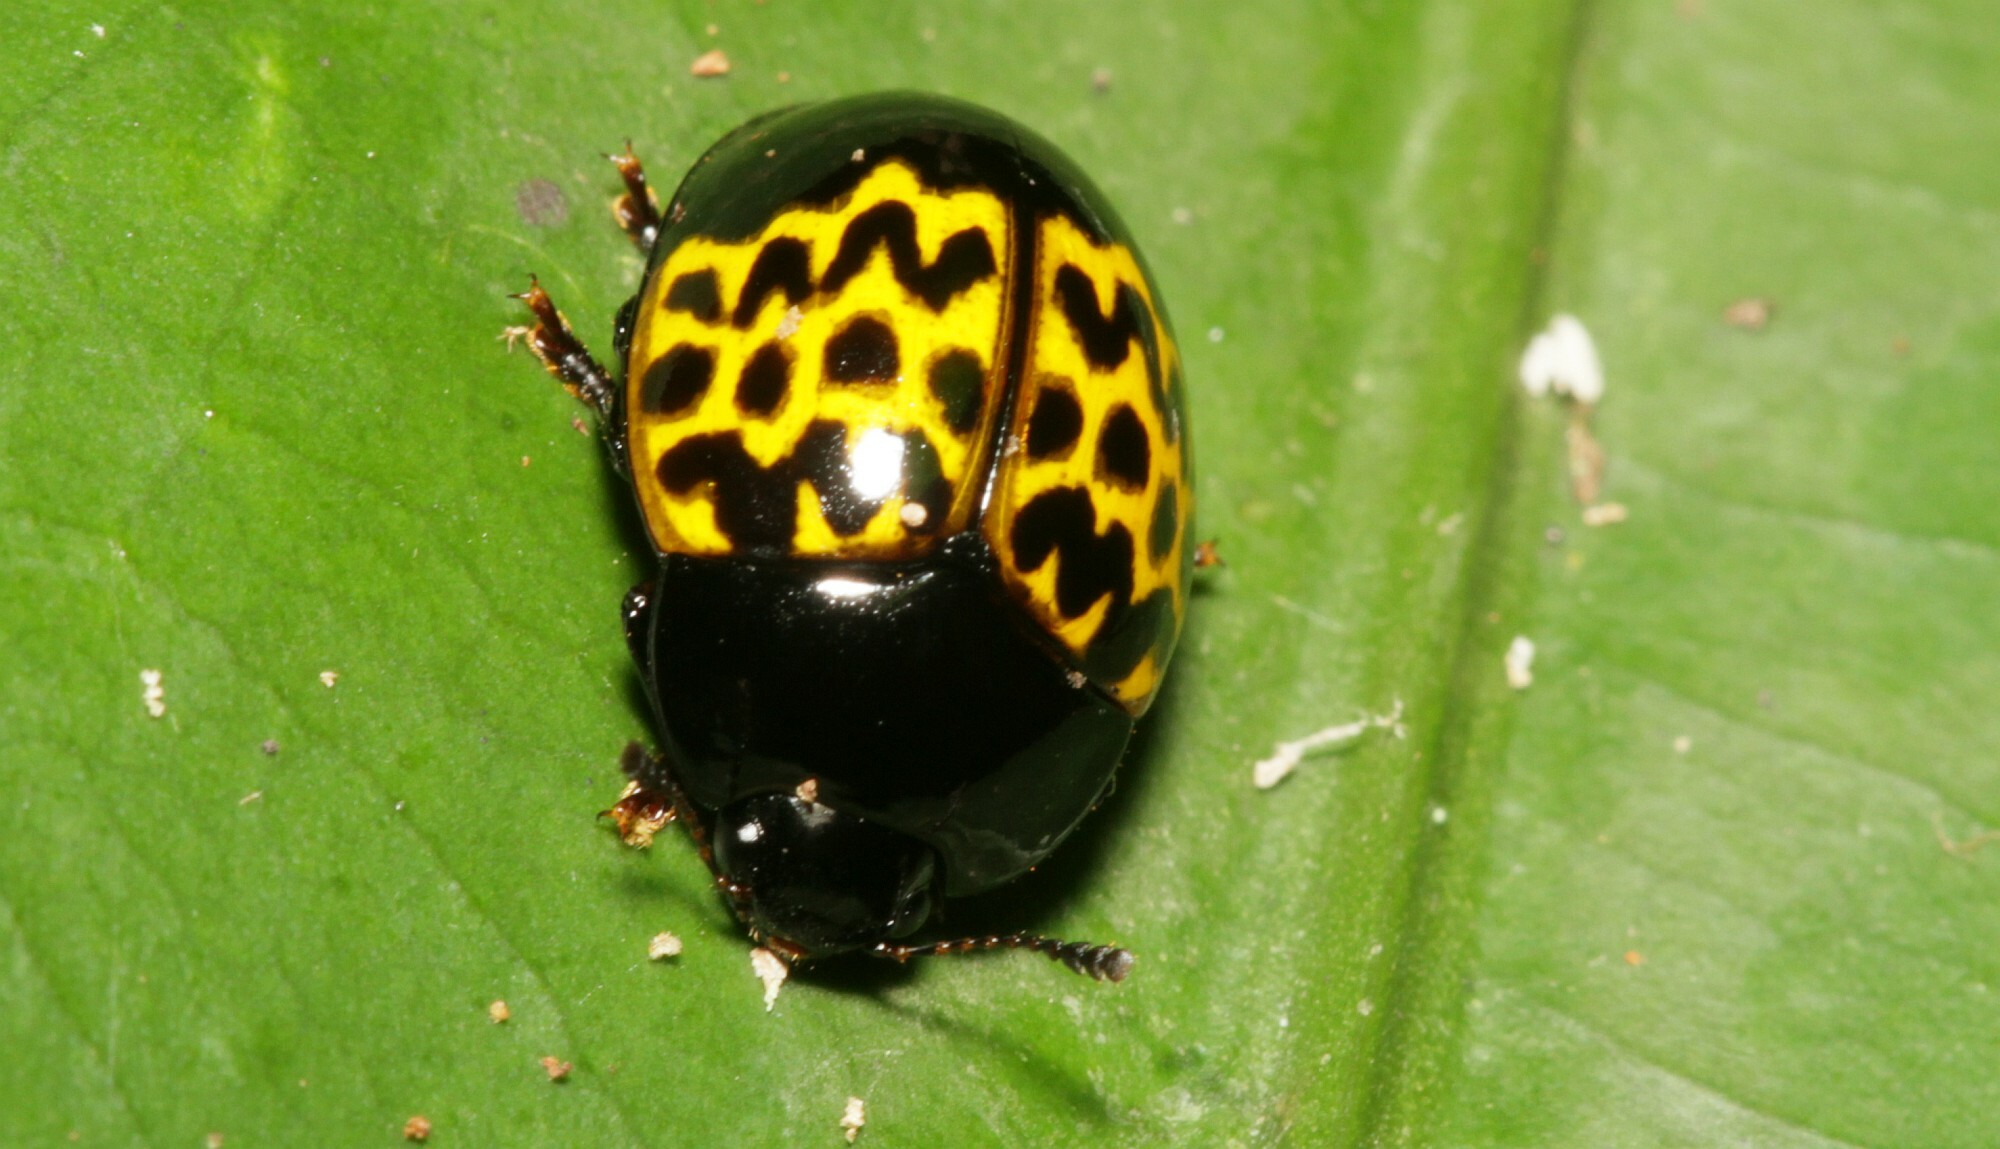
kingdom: Animalia
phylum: Arthropoda
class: Insecta
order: Coleoptera
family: Erotylidae
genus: Iphiclus
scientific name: Iphiclus
